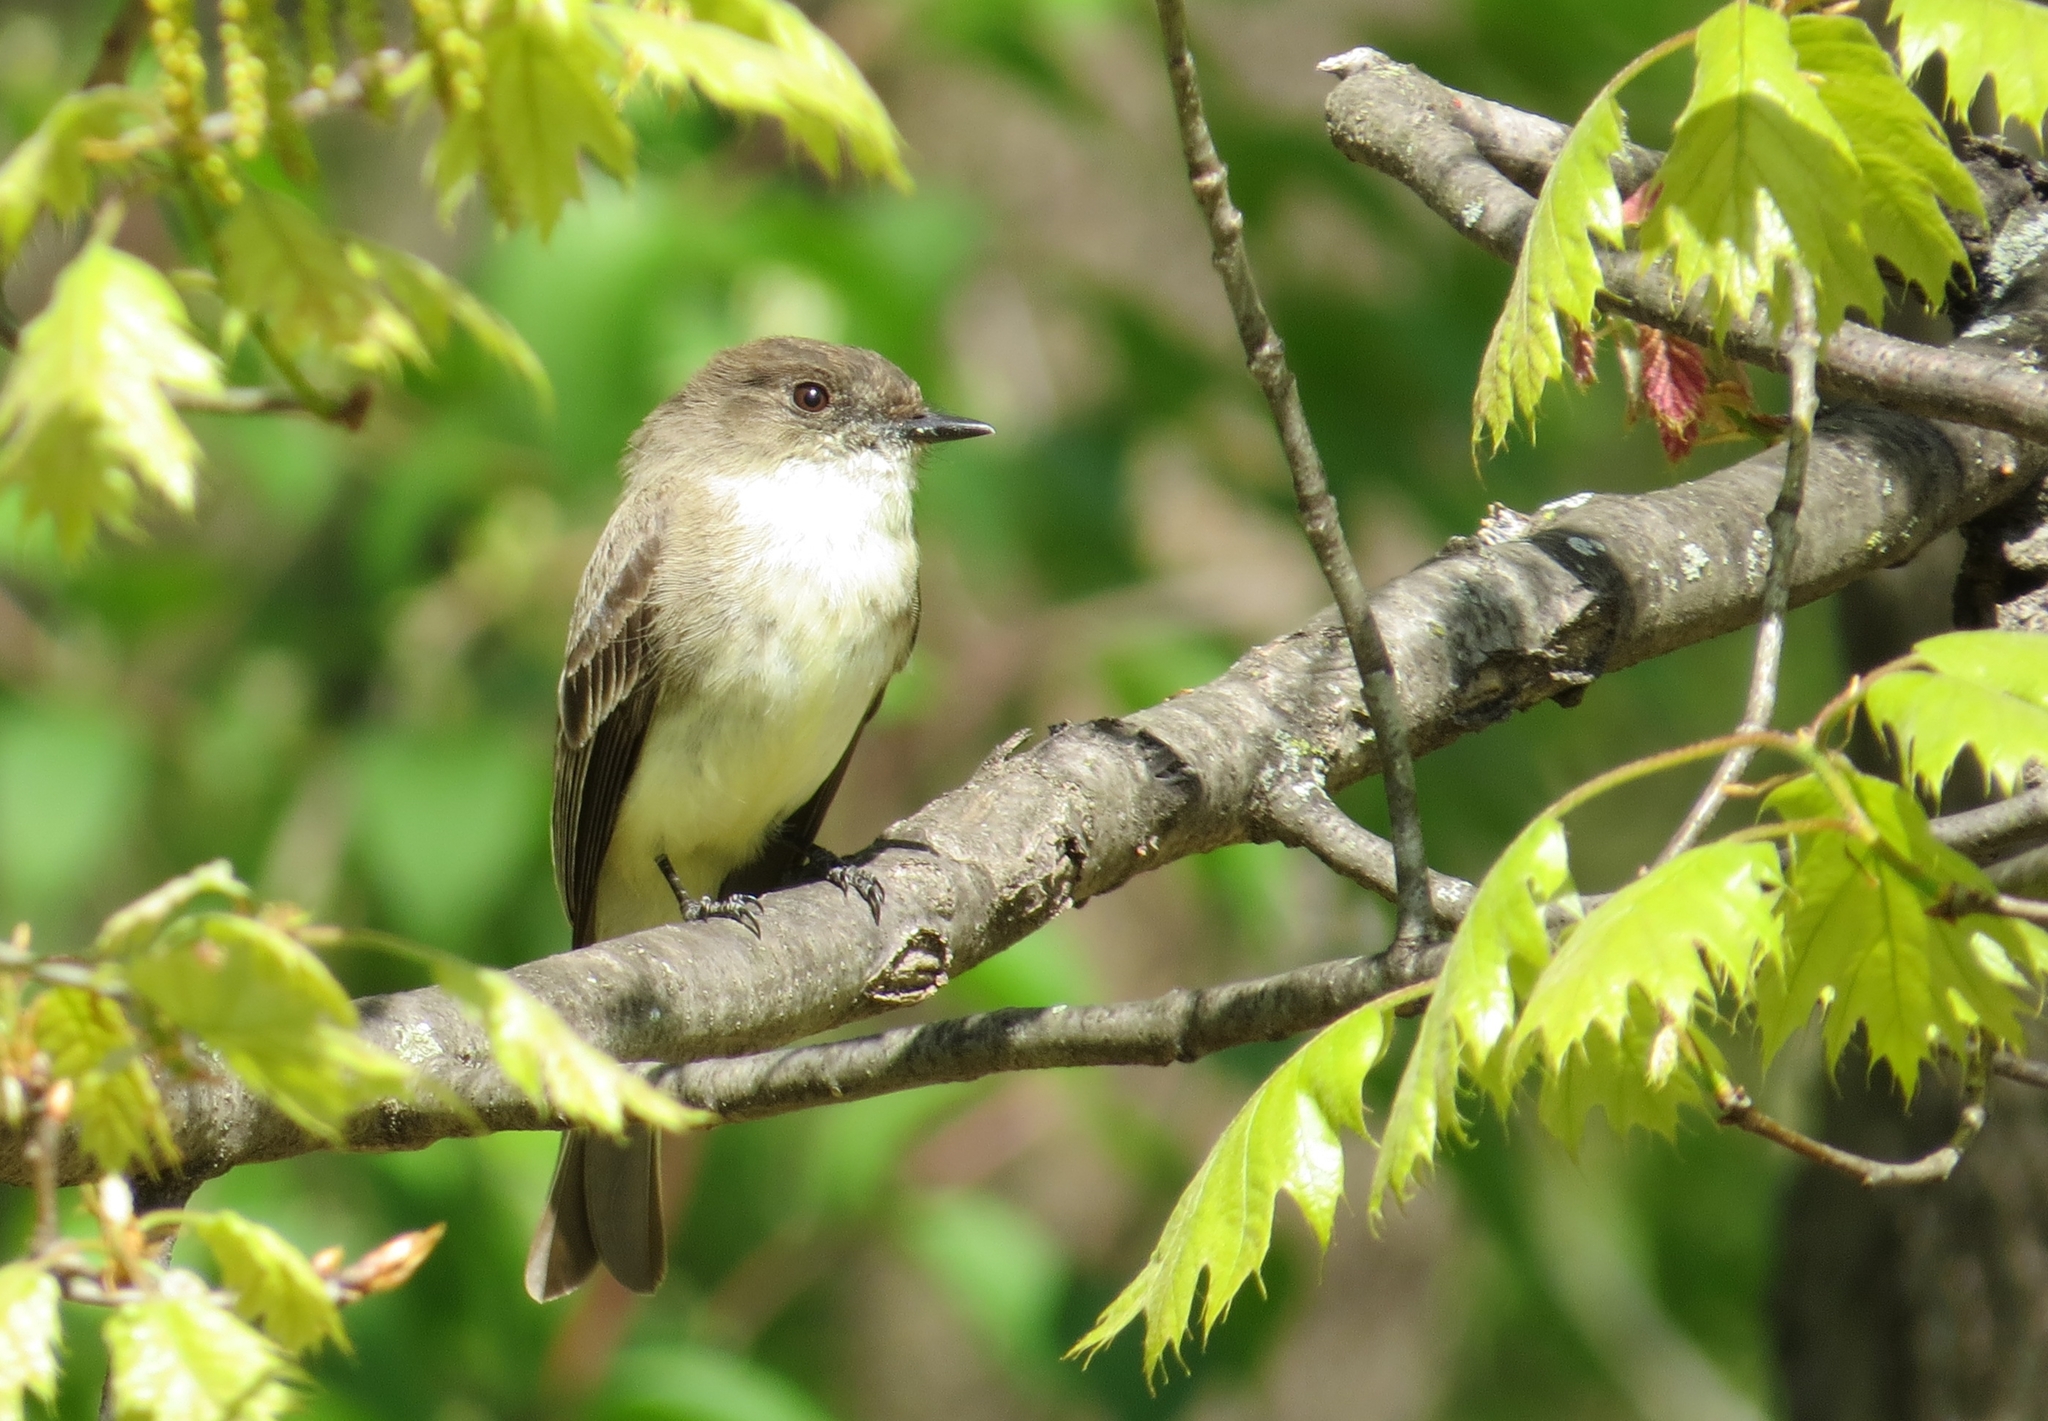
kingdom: Animalia
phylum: Chordata
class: Aves
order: Passeriformes
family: Tyrannidae
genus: Sayornis
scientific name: Sayornis phoebe
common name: Eastern phoebe
